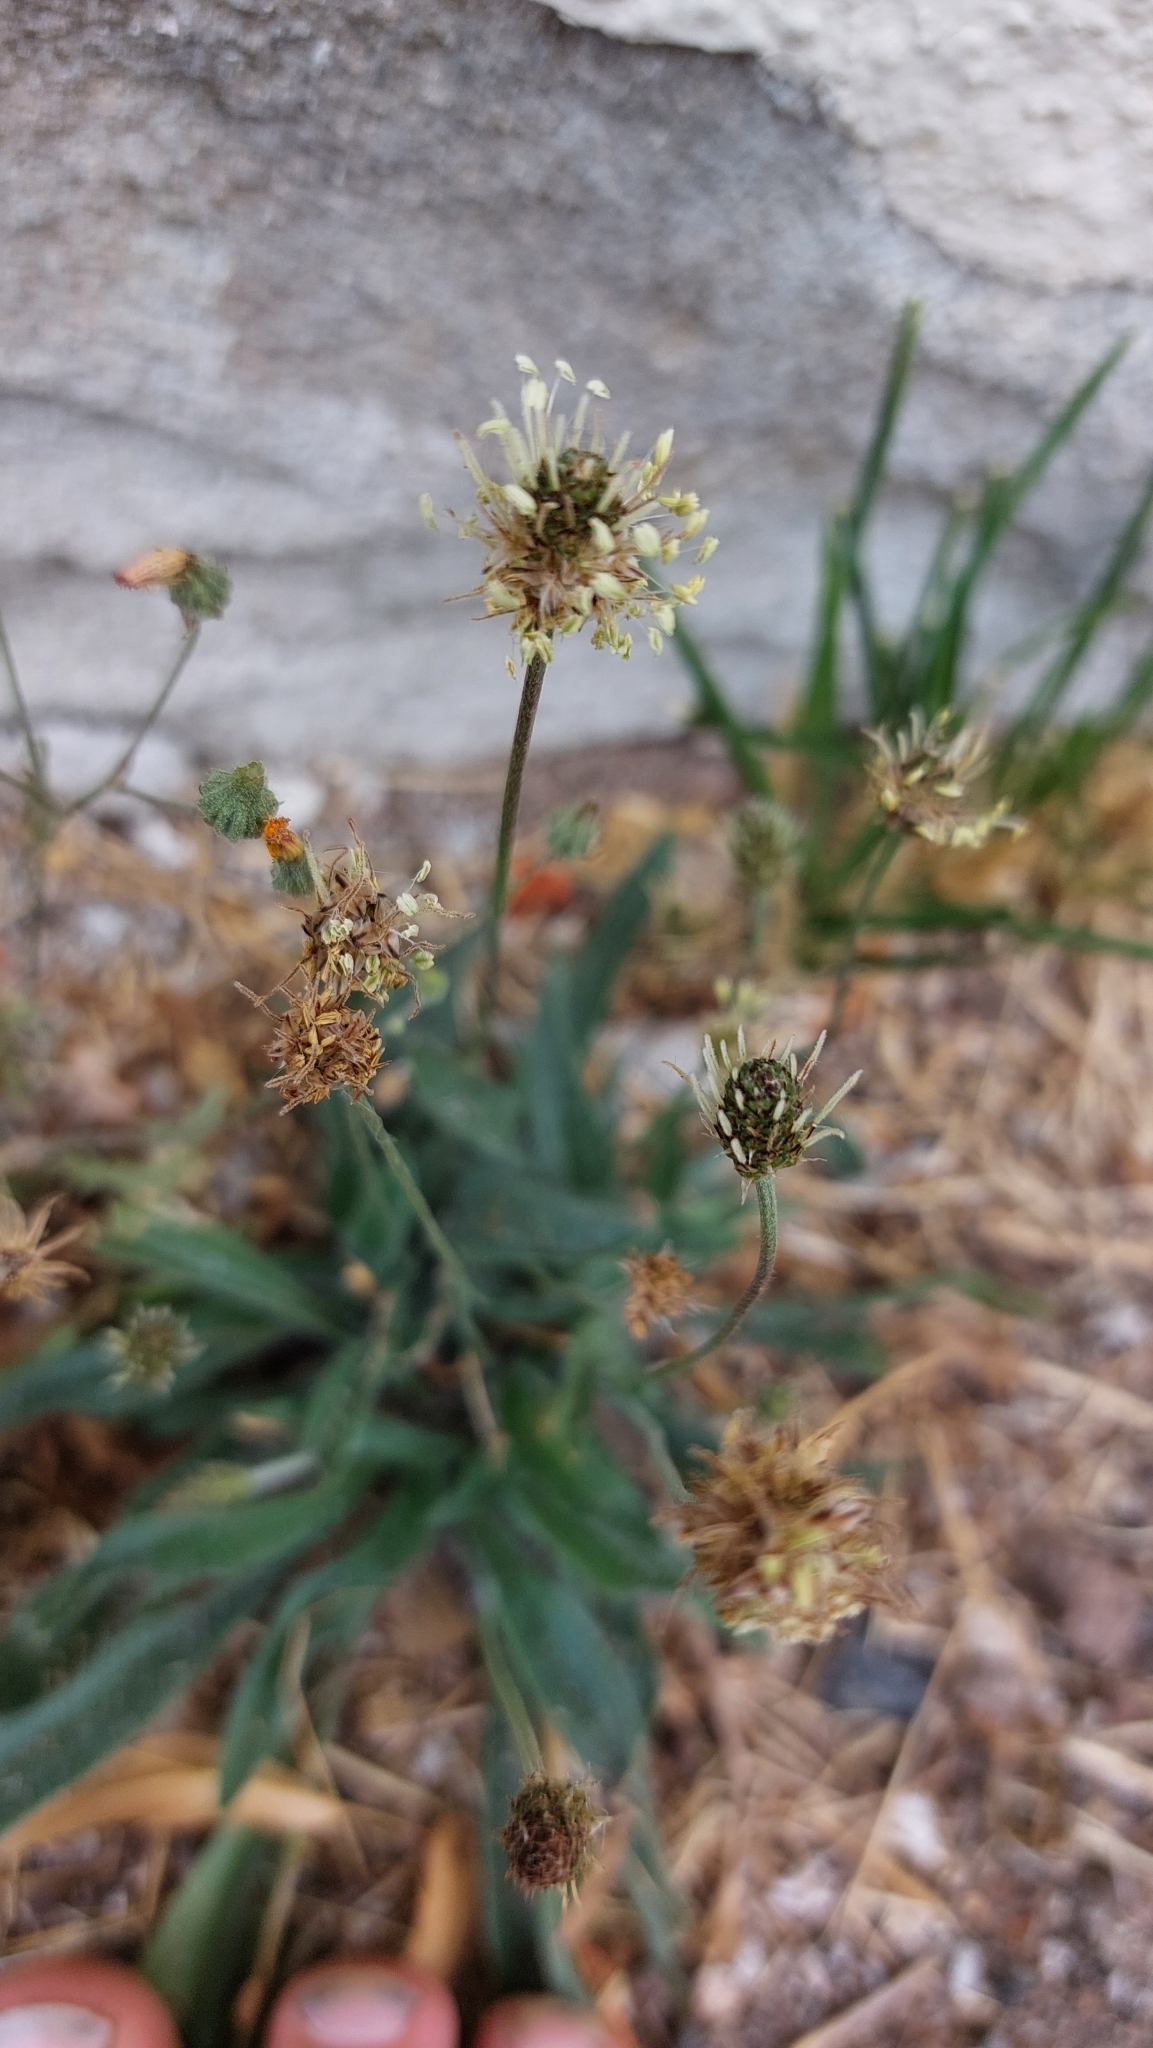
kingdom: Plantae
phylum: Tracheophyta
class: Magnoliopsida
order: Lamiales
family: Plantaginaceae
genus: Plantago
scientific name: Plantago lanceolata
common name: Ribwort plantain
